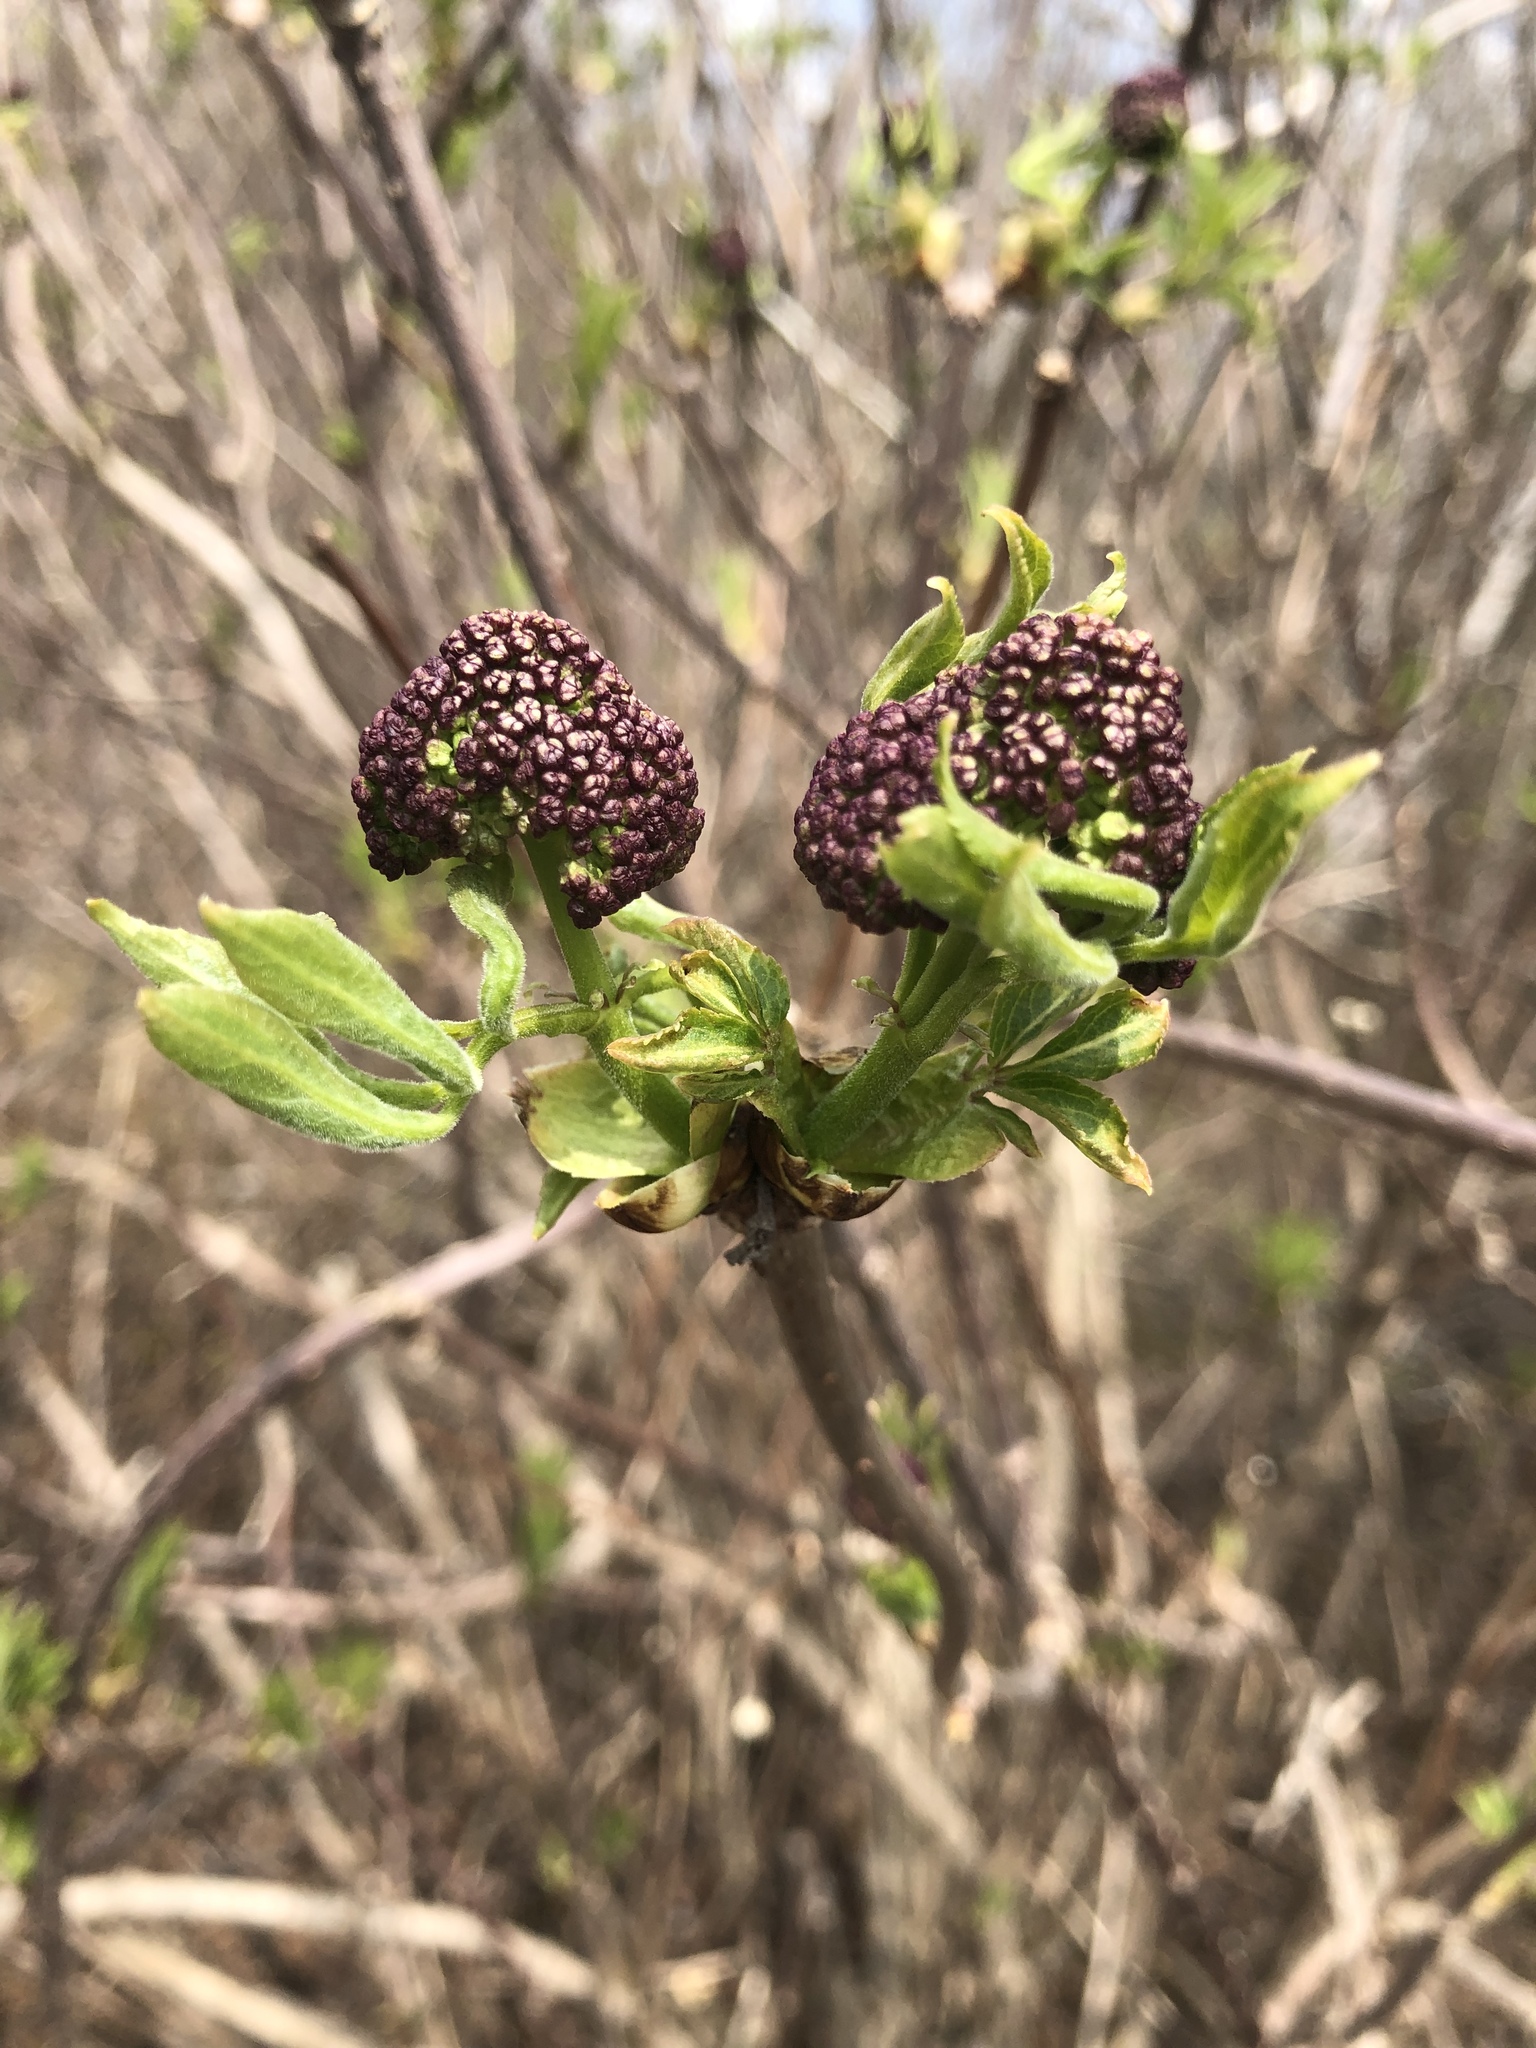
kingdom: Plantae
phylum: Tracheophyta
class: Magnoliopsida
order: Dipsacales
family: Viburnaceae
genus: Sambucus
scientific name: Sambucus racemosa
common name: Red-berried elder
